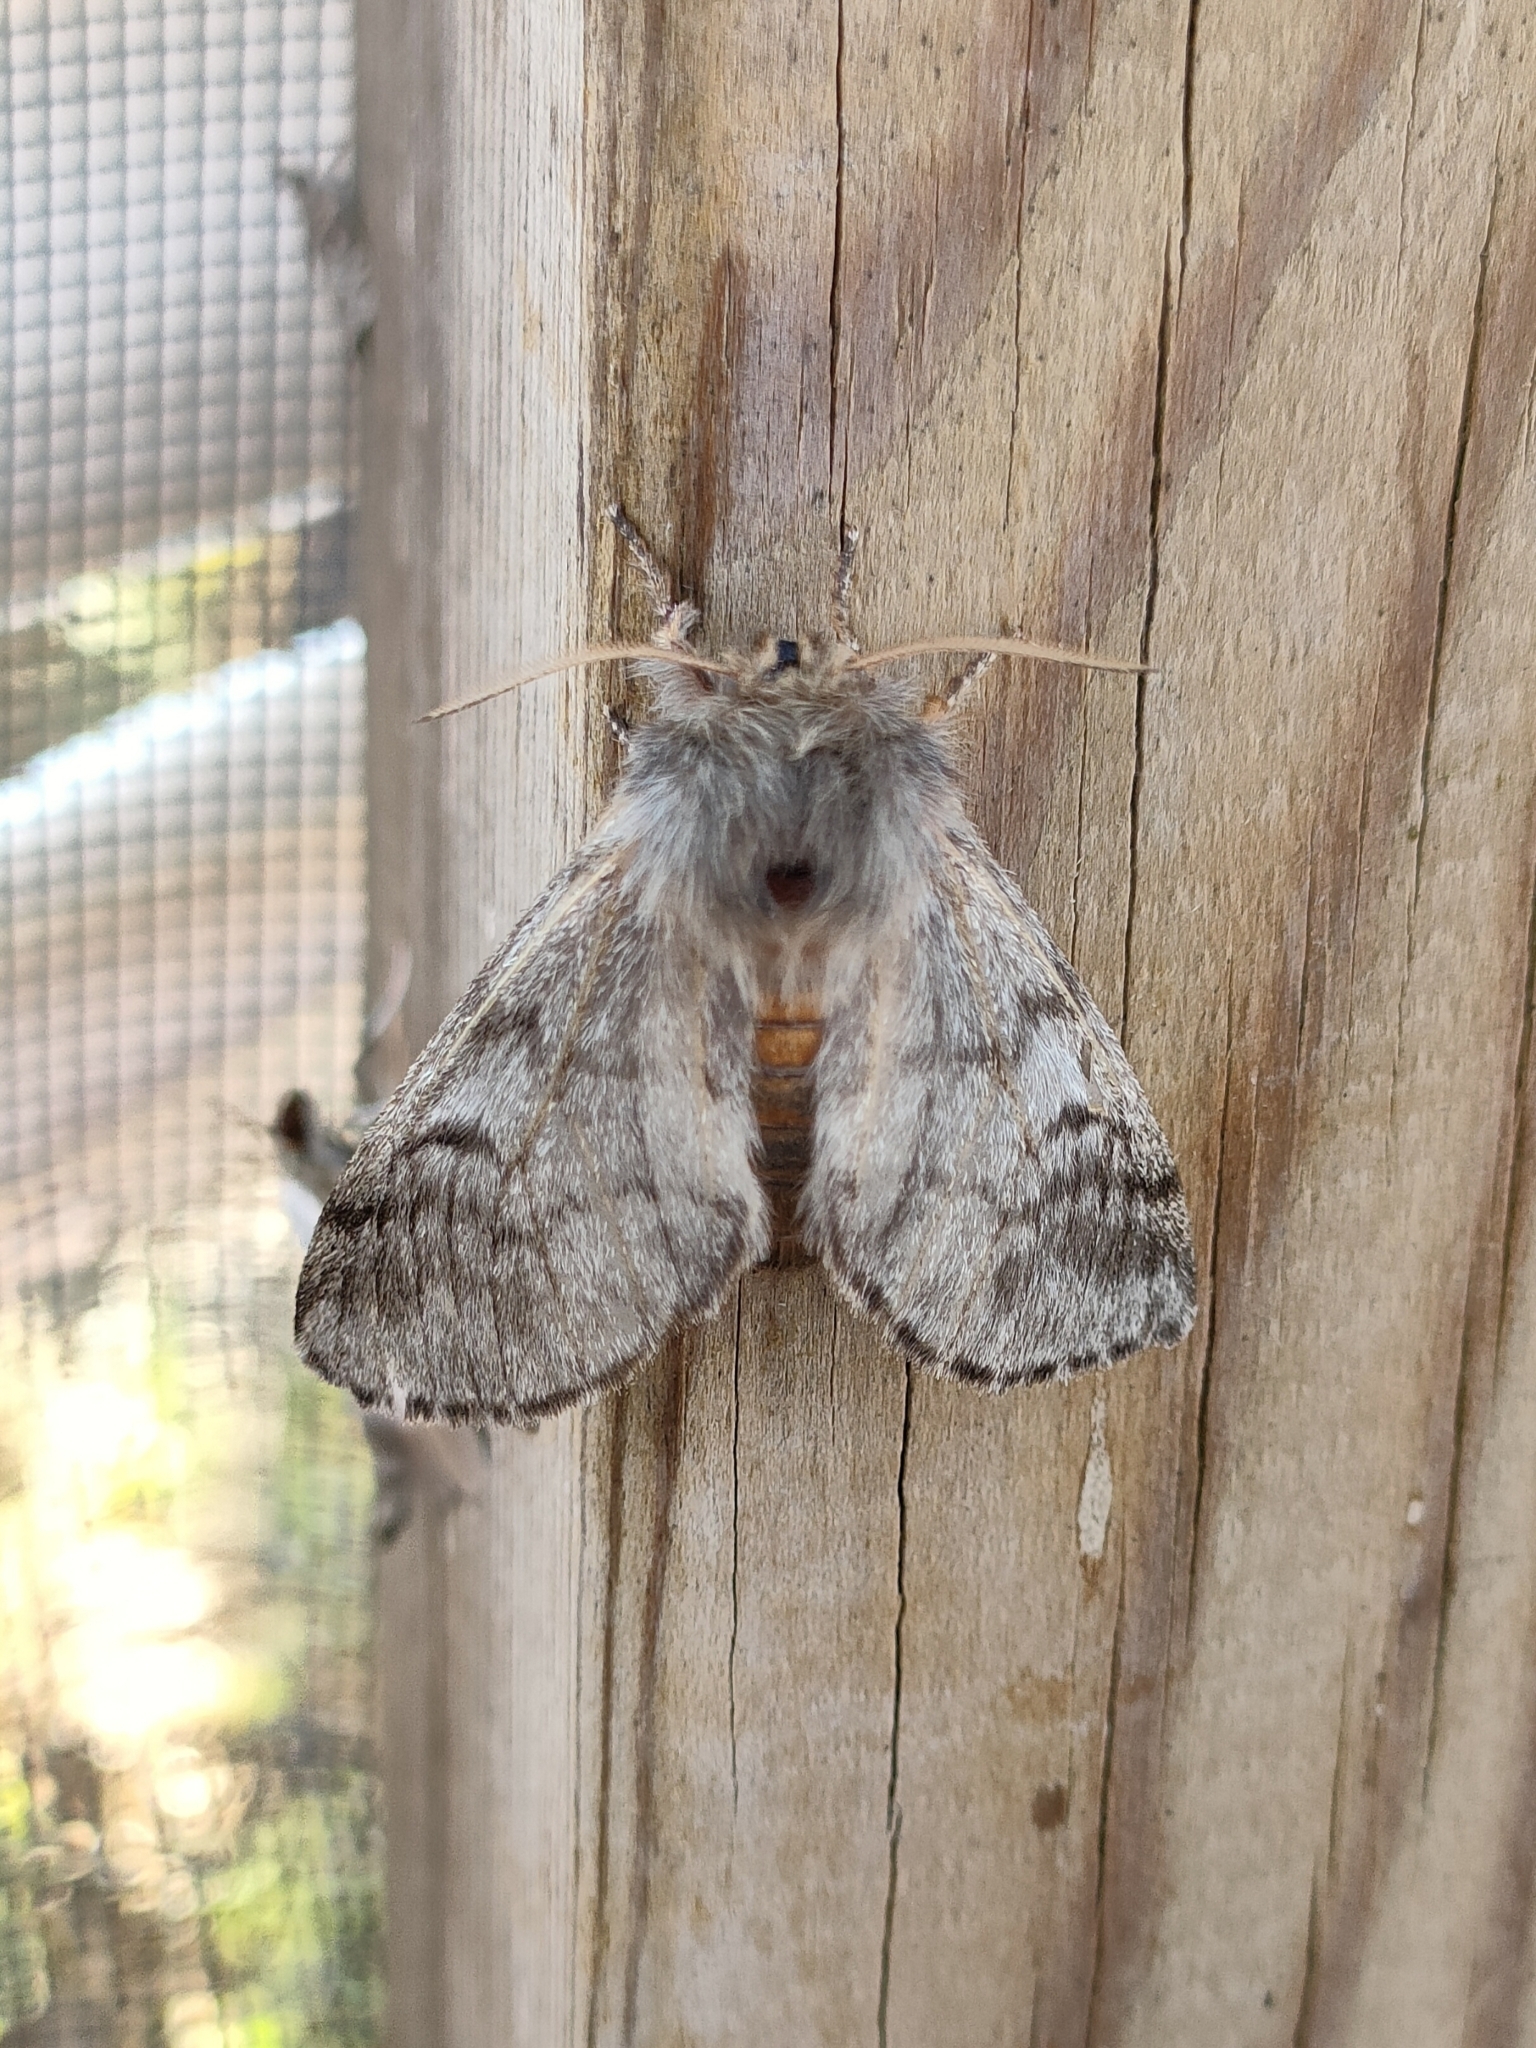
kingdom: Animalia
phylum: Arthropoda
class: Insecta
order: Lepidoptera
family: Notodontidae
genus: Thaumetopoea
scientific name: Thaumetopoea pityocampa
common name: Pine processionary
